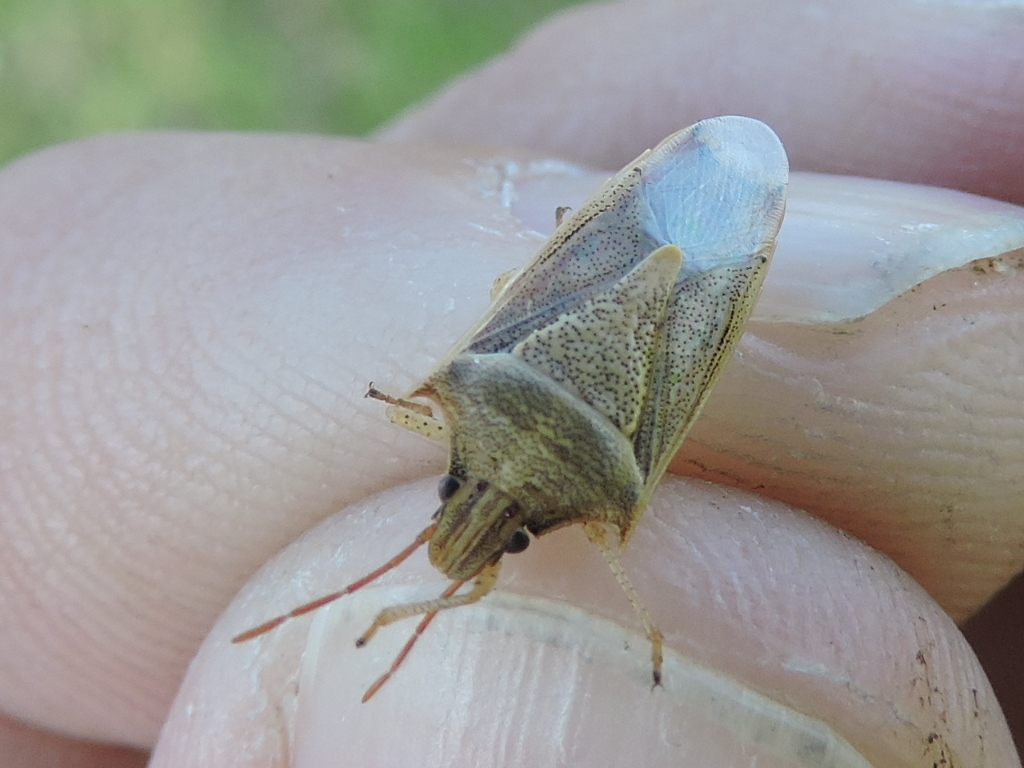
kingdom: Animalia
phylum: Arthropoda
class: Insecta
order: Hemiptera
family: Pentatomidae
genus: Oebalus
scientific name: Oebalus pugnax
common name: Rice stink bug
